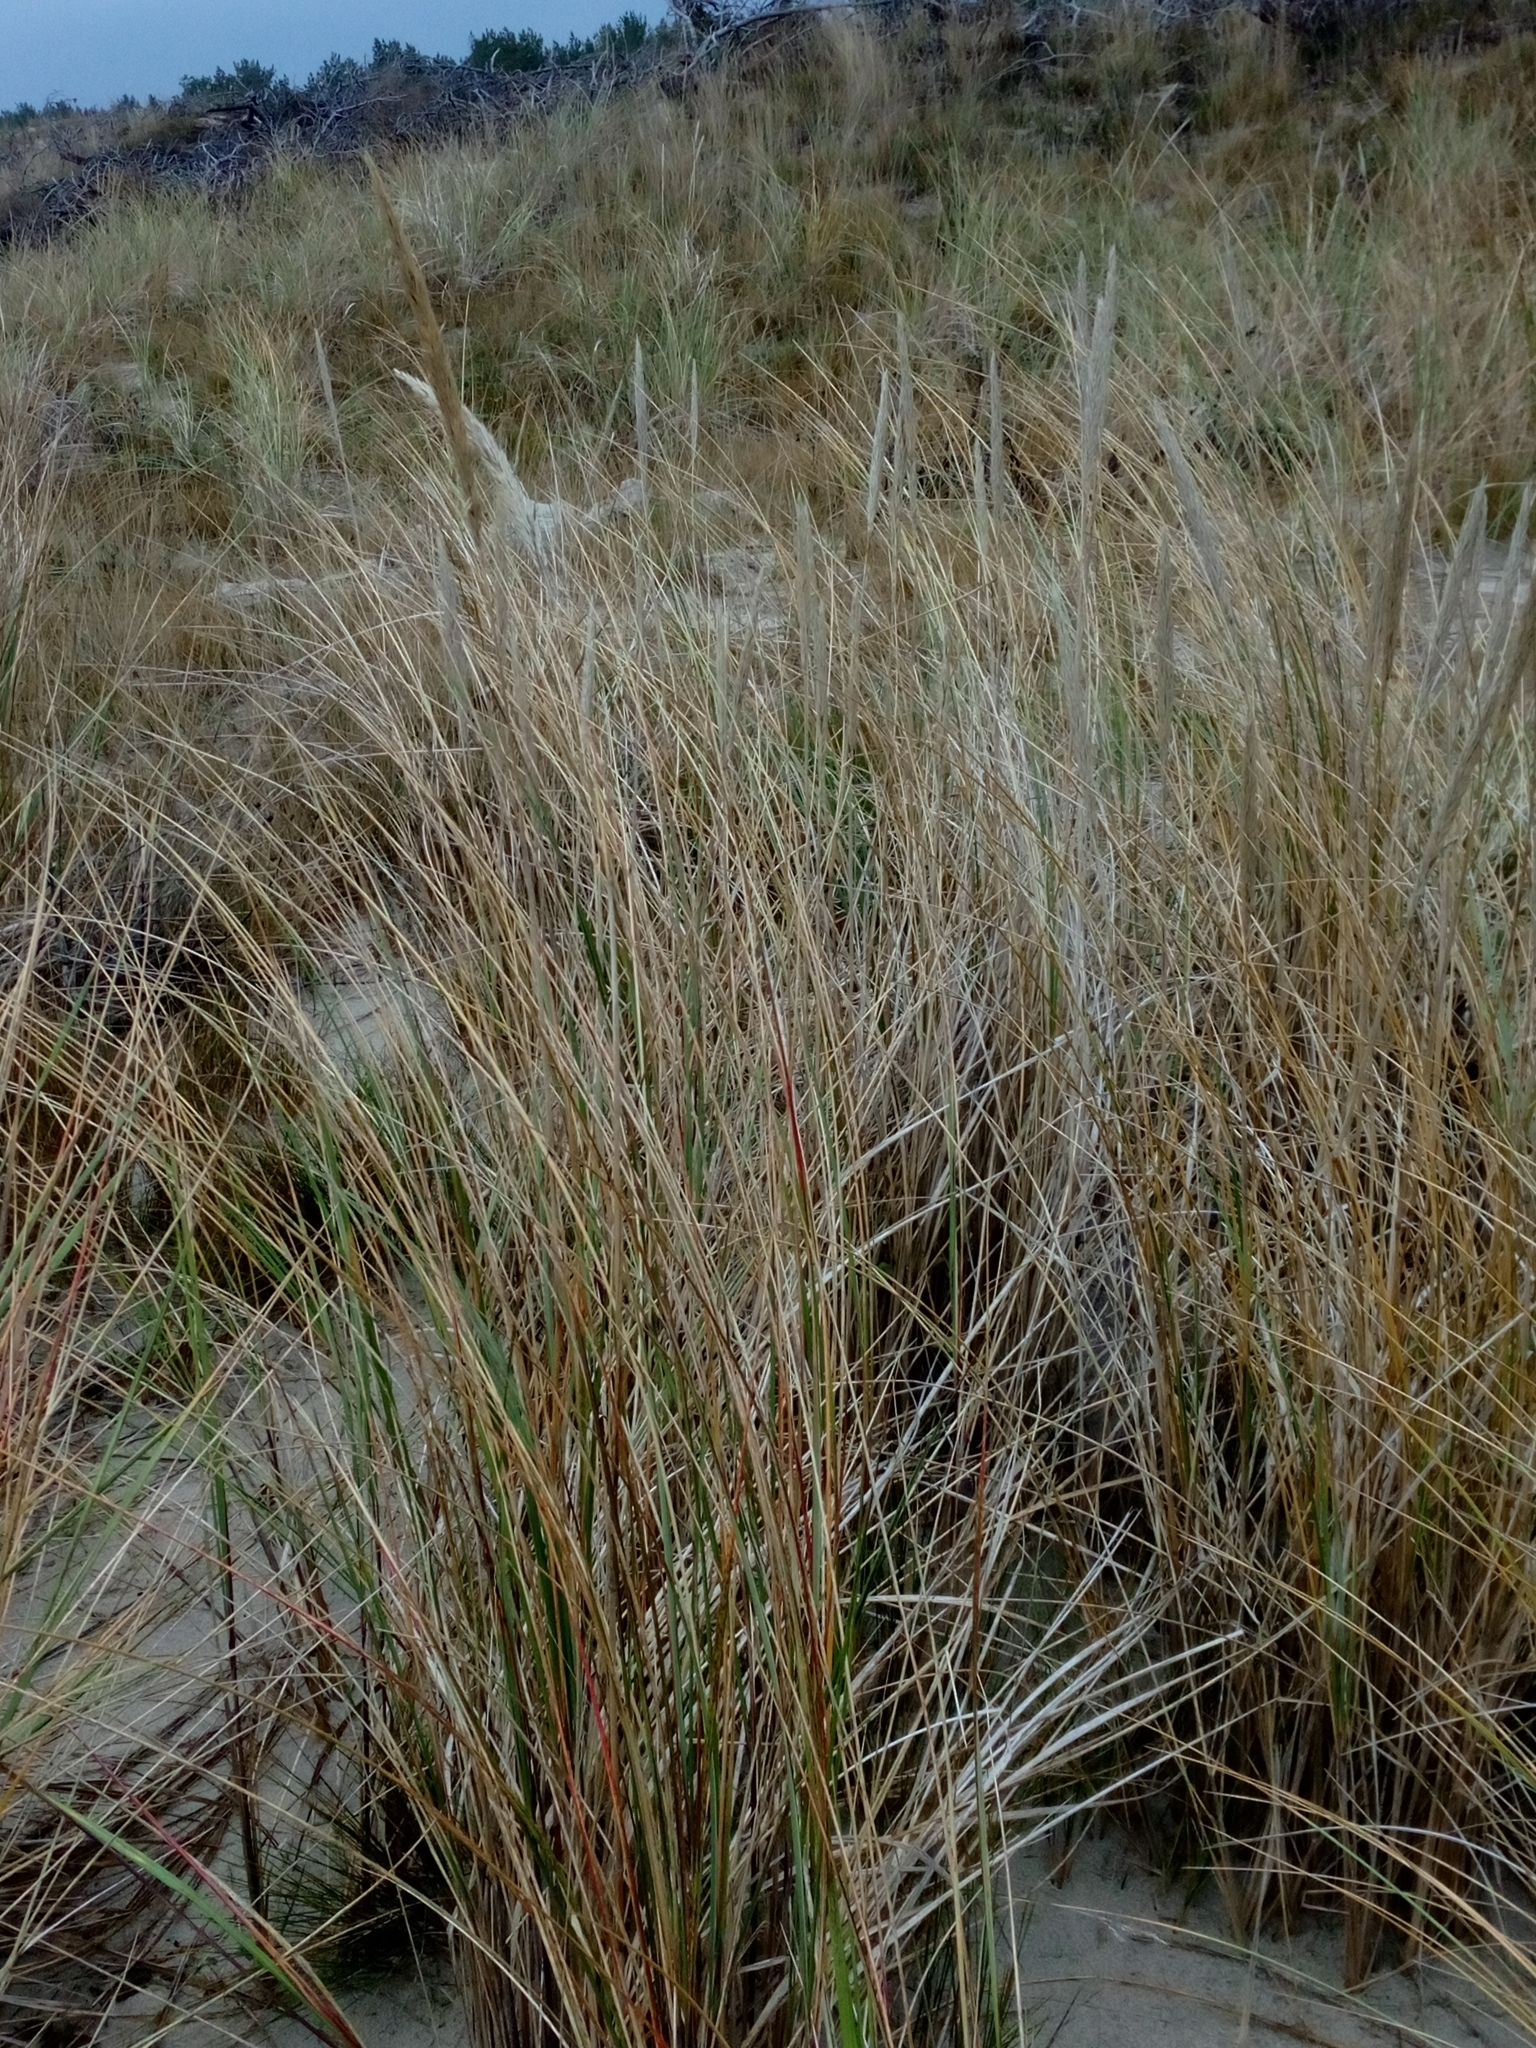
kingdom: Plantae
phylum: Tracheophyta
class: Liliopsida
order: Poales
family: Poaceae
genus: Calamagrostis
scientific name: Calamagrostis arenaria
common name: European beachgrass
